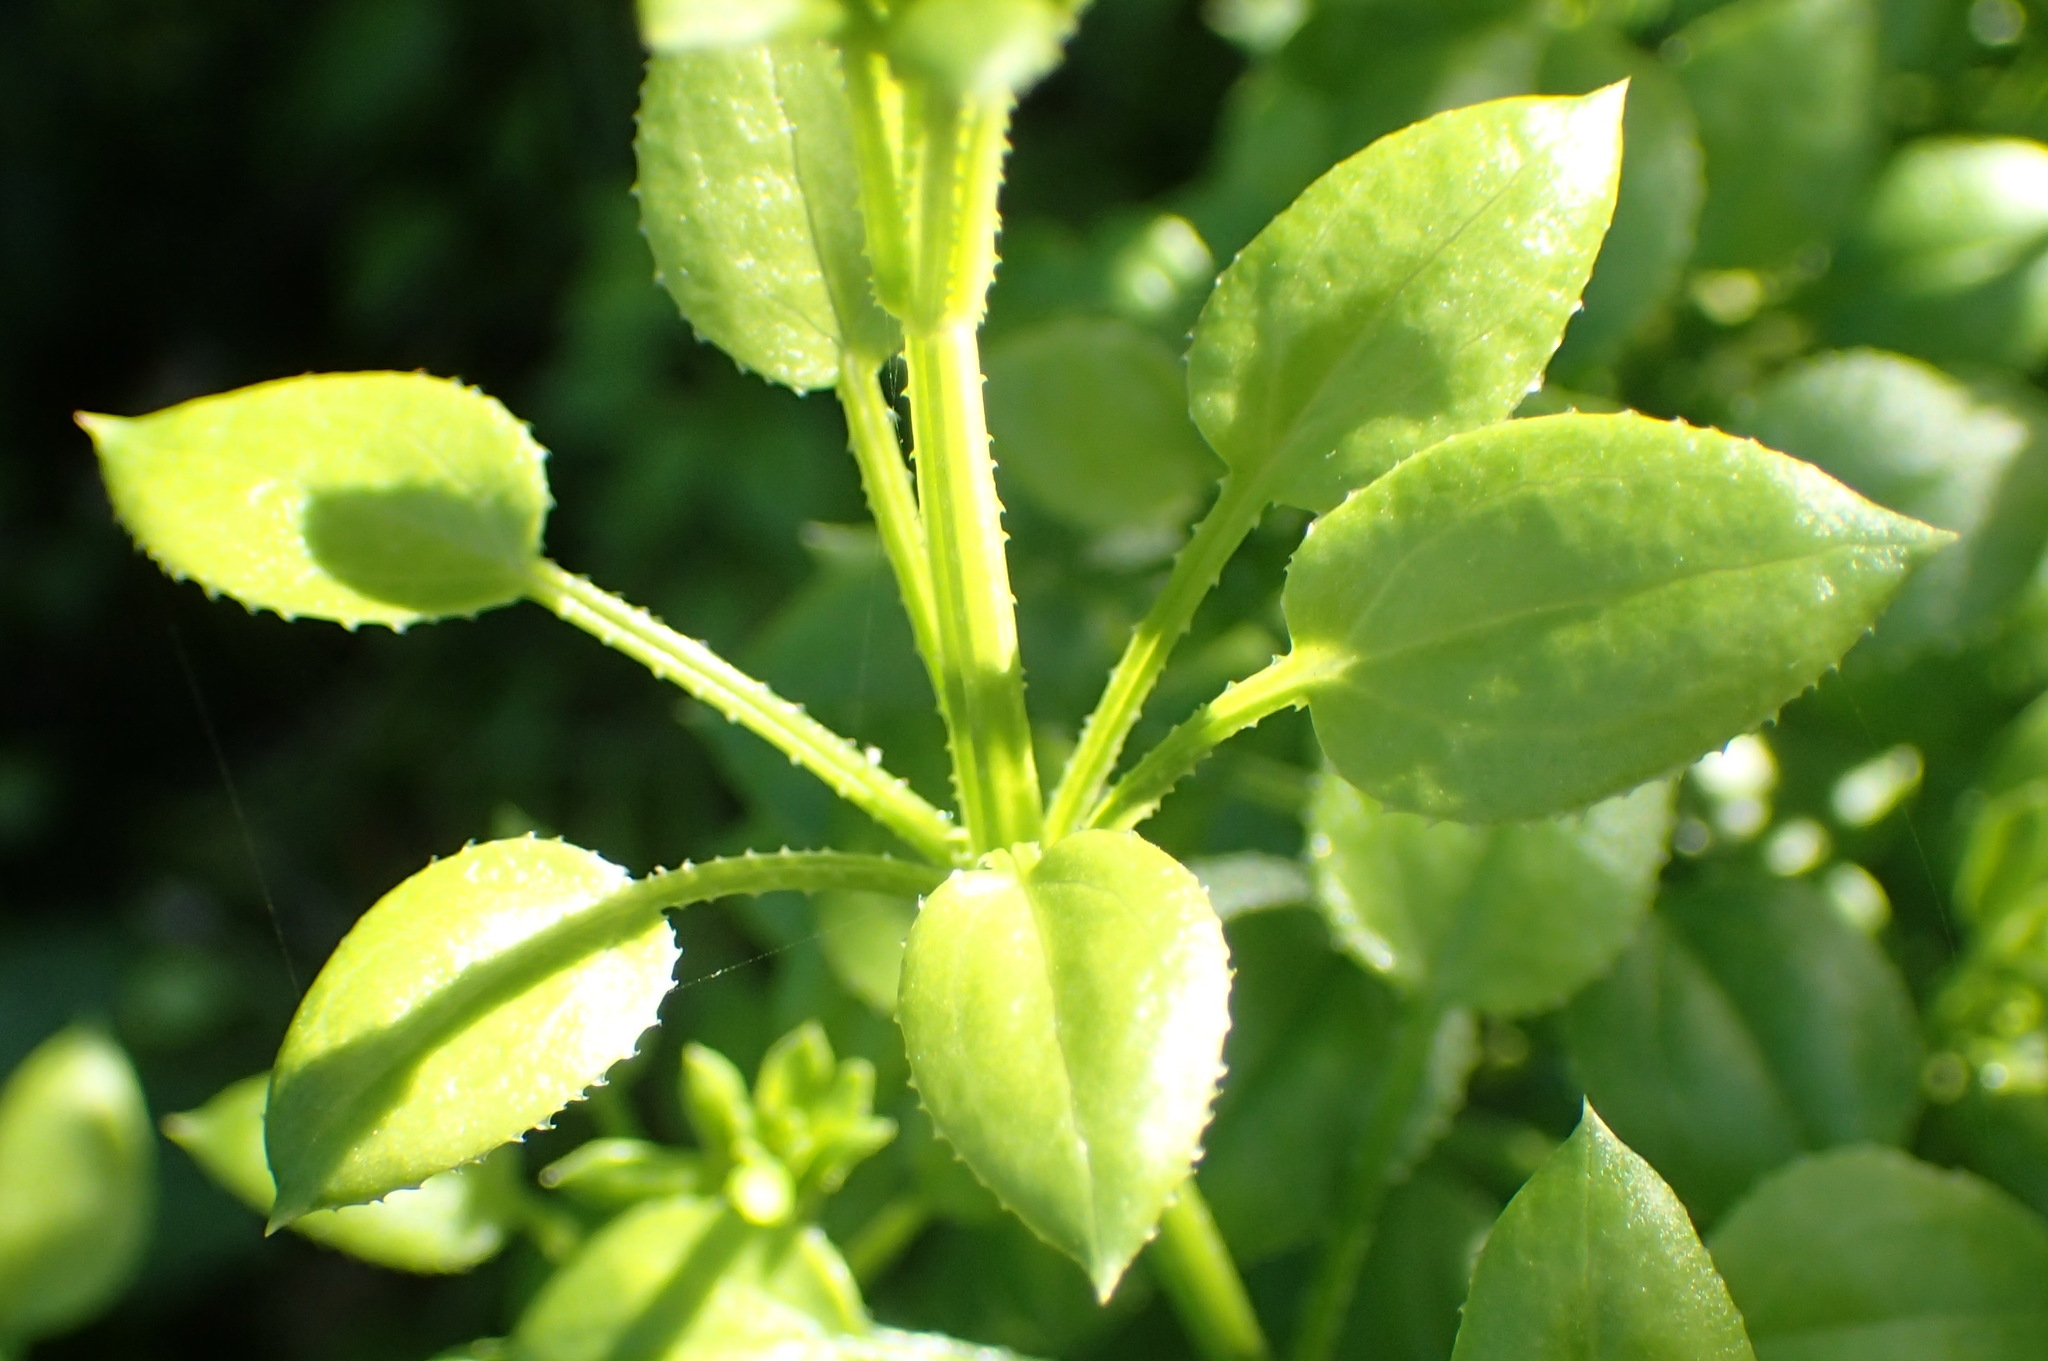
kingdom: Plantae
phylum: Tracheophyta
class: Magnoliopsida
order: Gentianales
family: Rubiaceae
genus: Rubia
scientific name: Rubia petiolaris
